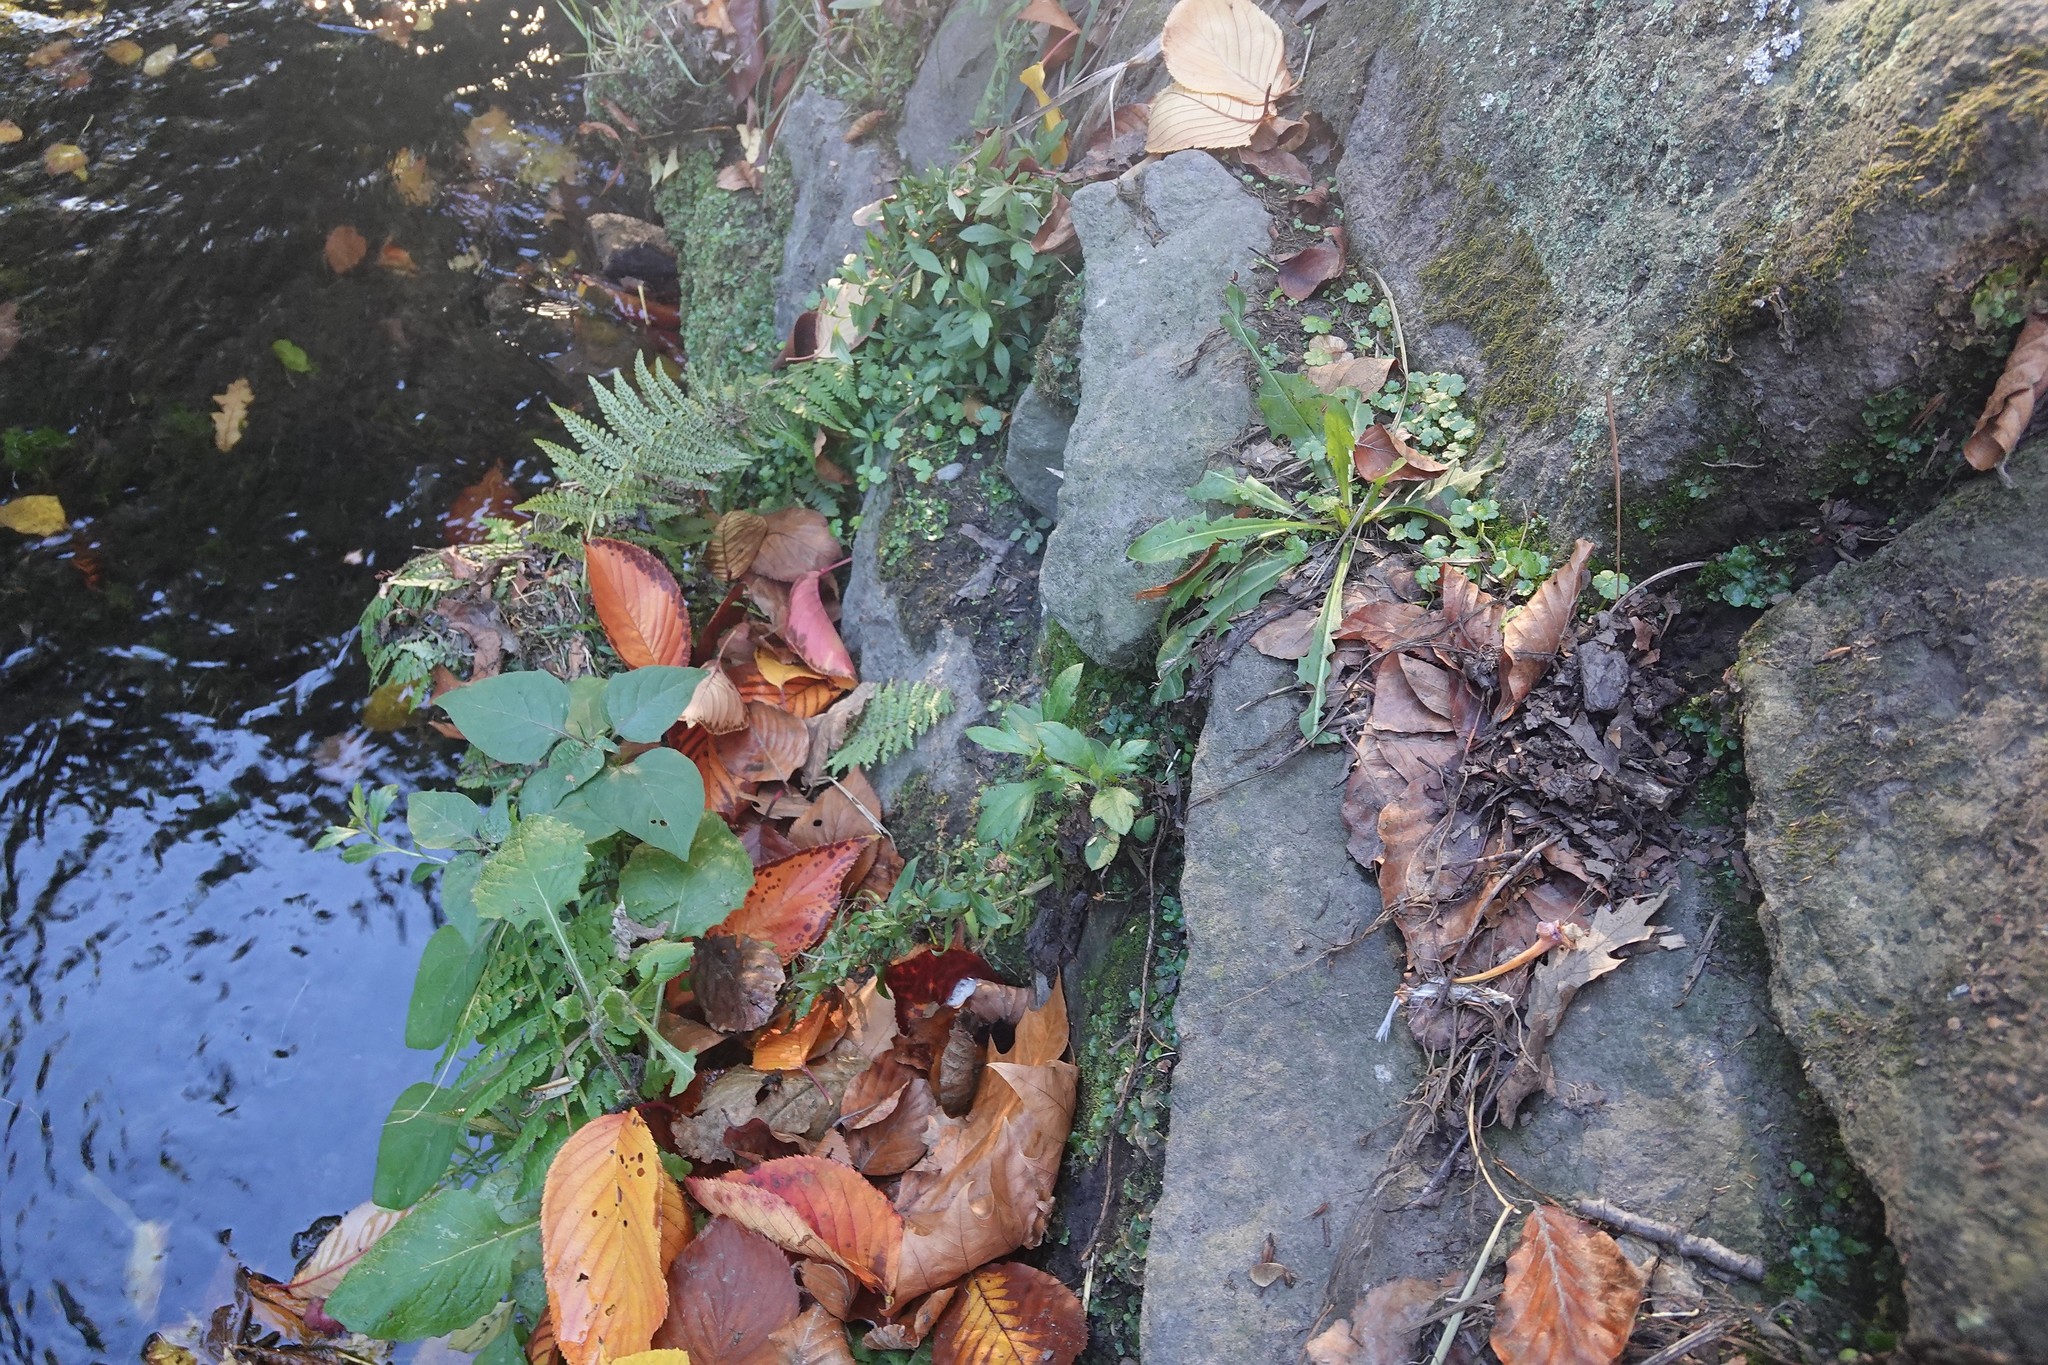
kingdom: Plantae
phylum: Tracheophyta
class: Magnoliopsida
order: Asterales
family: Asteraceae
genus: Erigeron
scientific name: Erigeron karvinskianus
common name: Mexican fleabane
